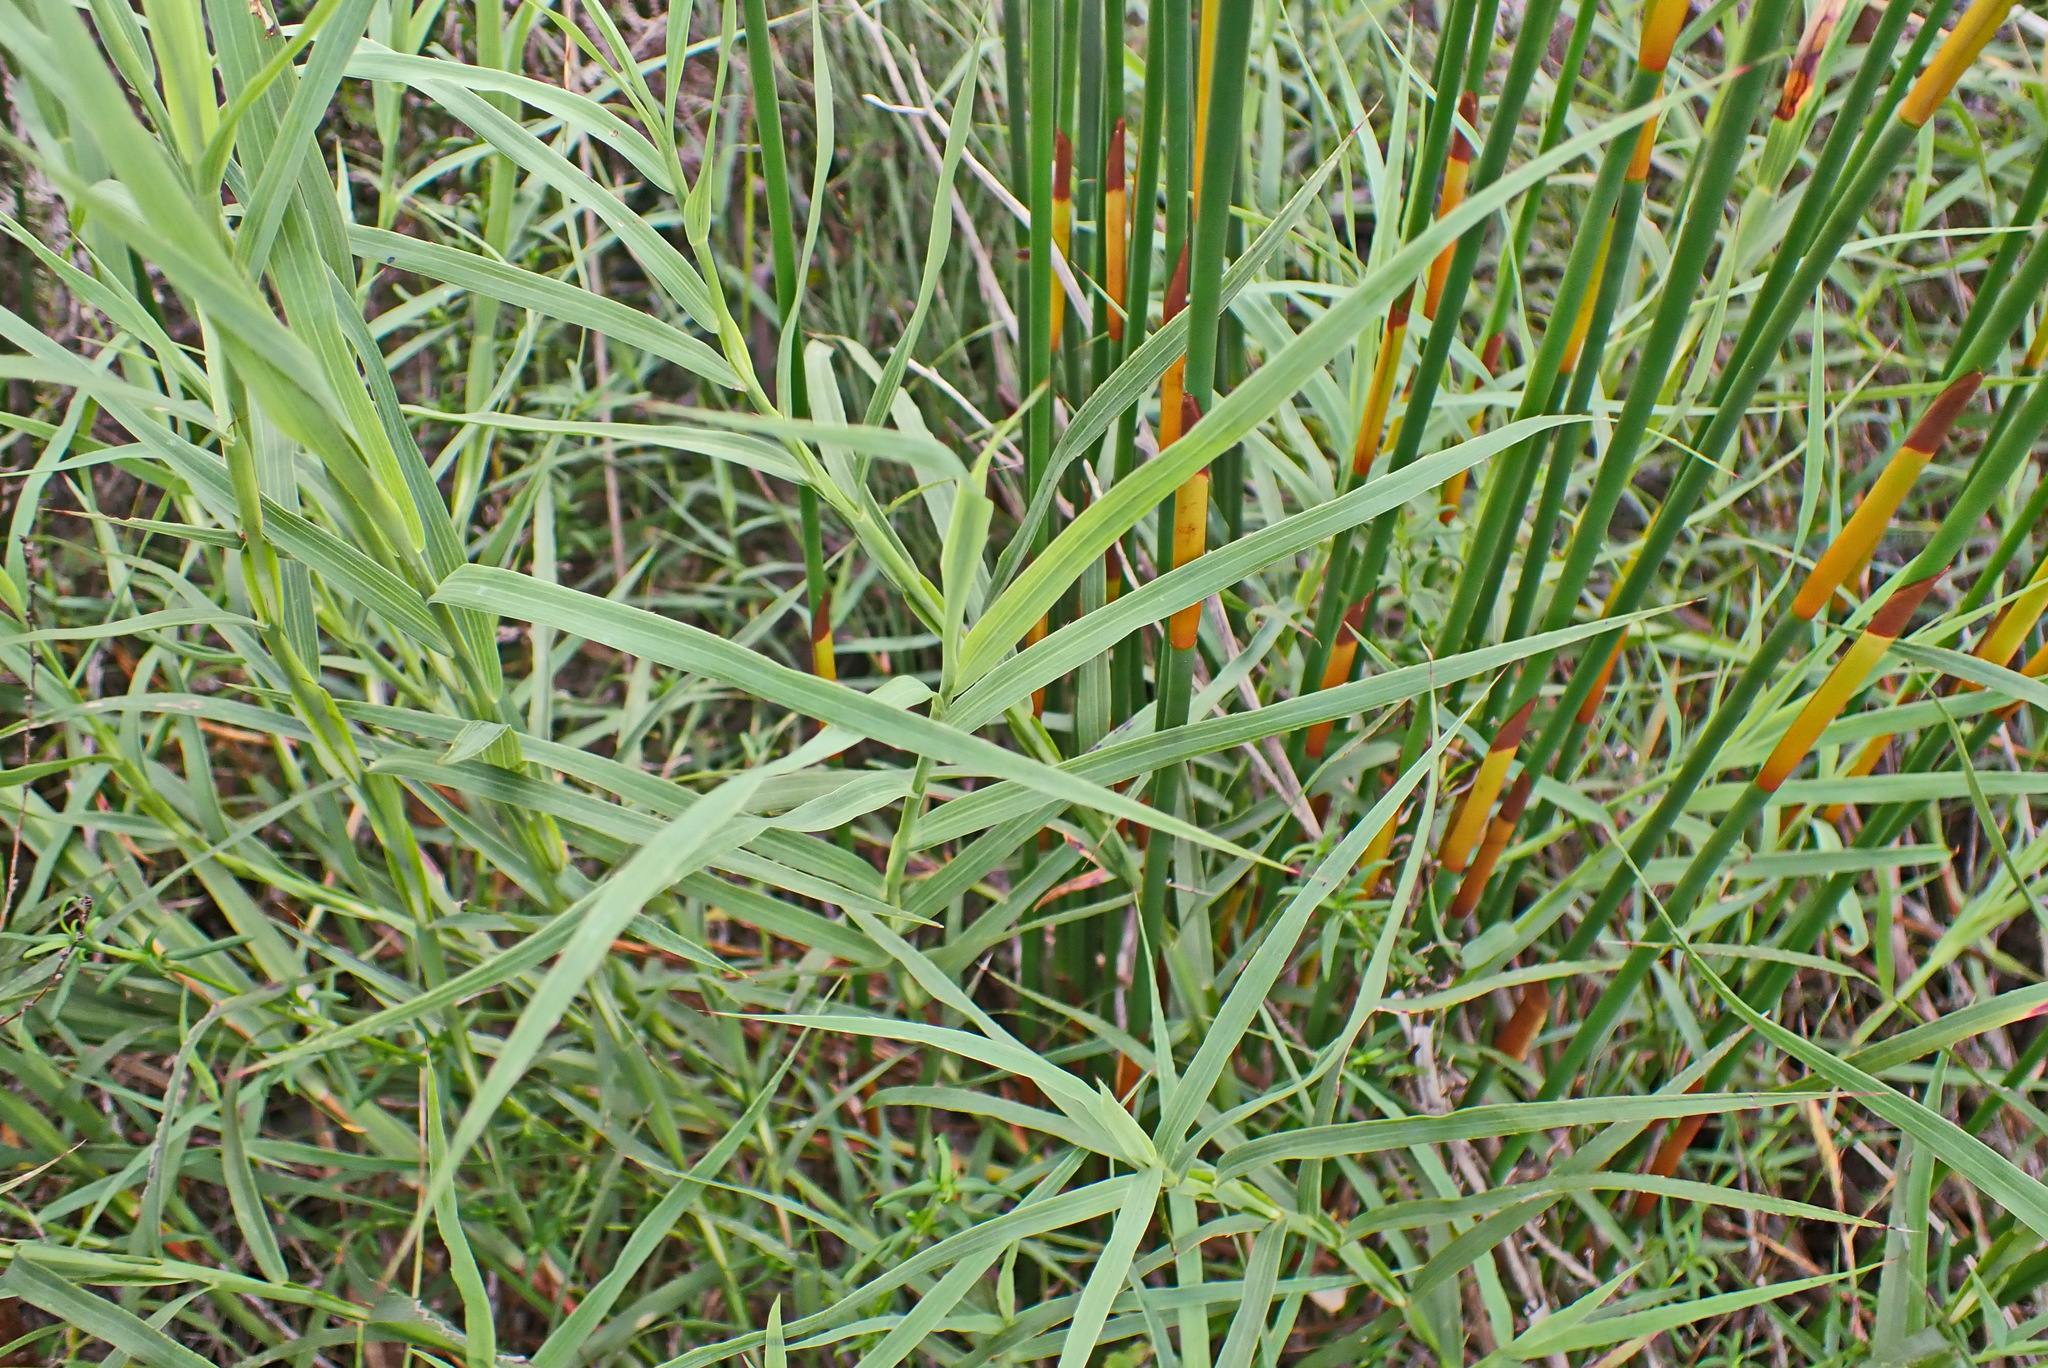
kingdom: Plantae
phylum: Tracheophyta
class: Magnoliopsida
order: Rosales
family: Rosaceae
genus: Cliffortia
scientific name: Cliffortia graminea
